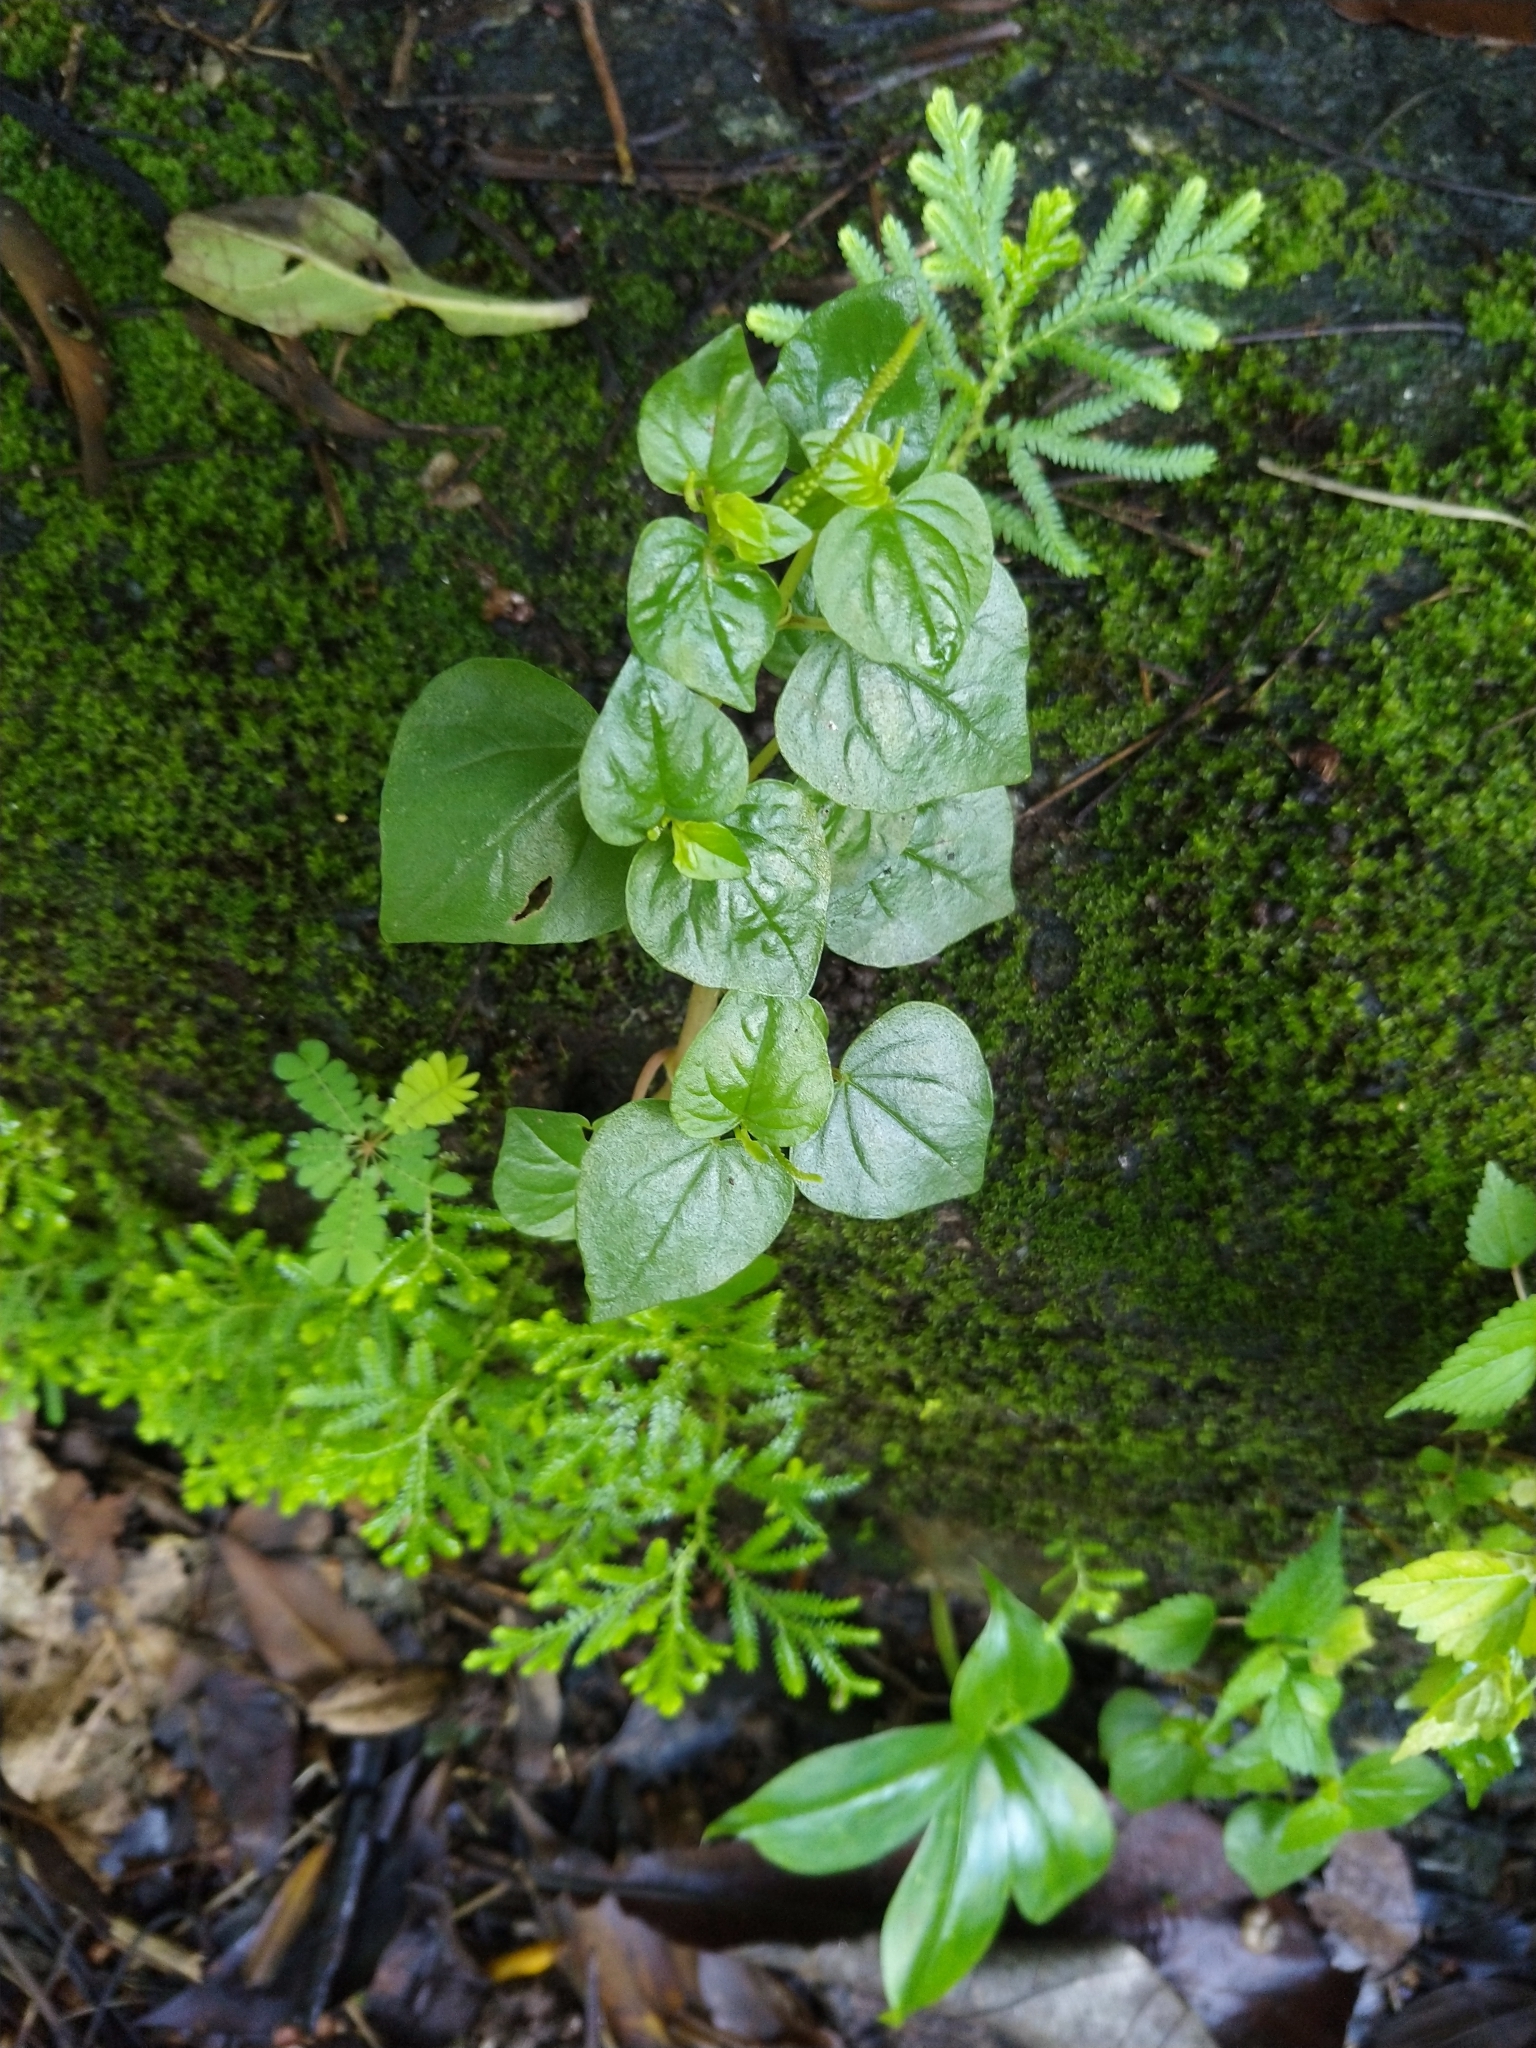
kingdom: Plantae
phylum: Tracheophyta
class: Magnoliopsida
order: Piperales
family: Piperaceae
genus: Peperomia
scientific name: Peperomia pellucida
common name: Man to man
